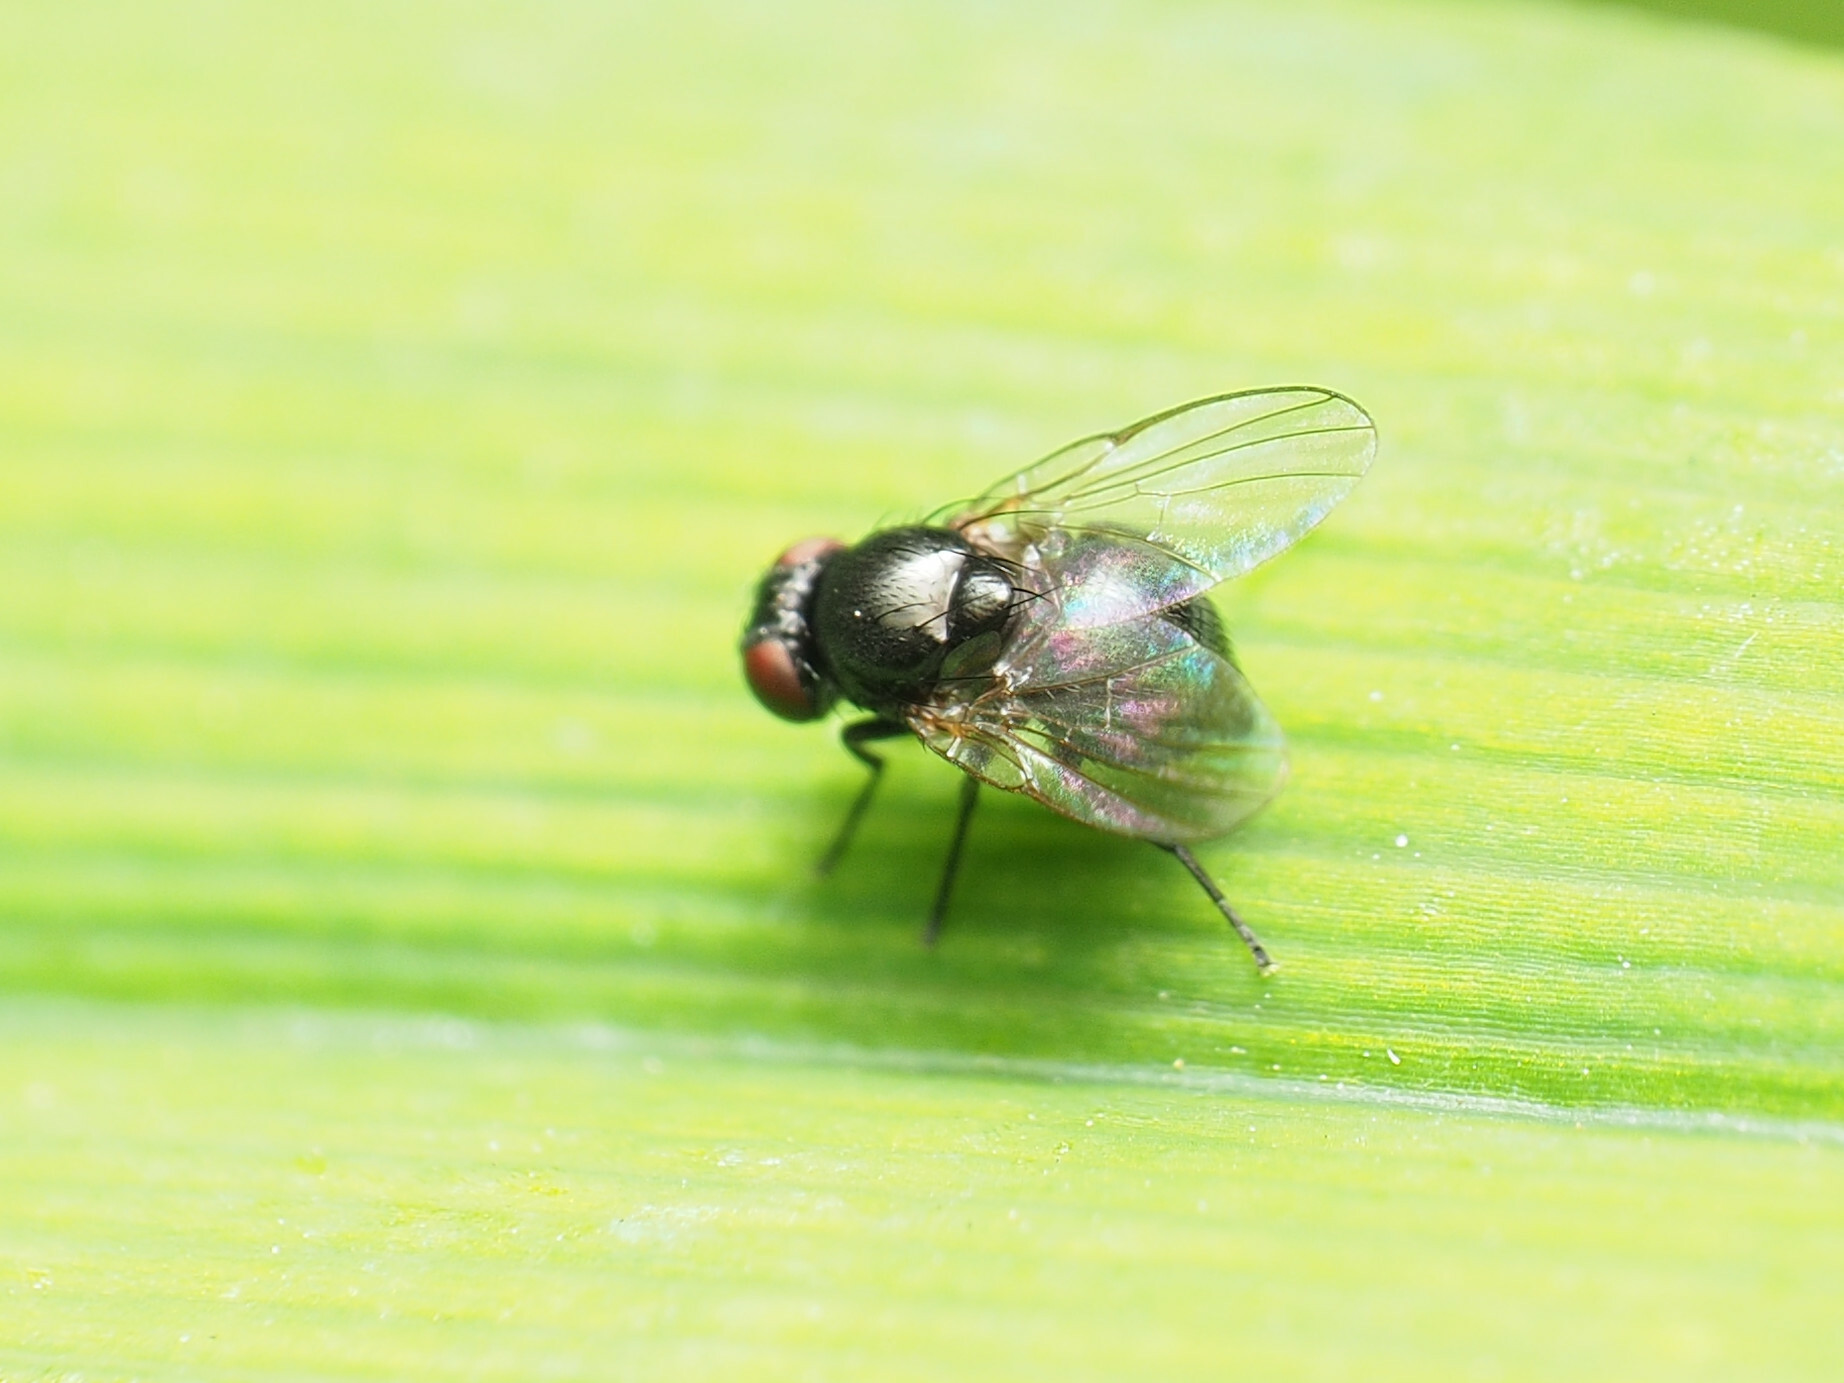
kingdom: Animalia
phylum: Arthropoda
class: Insecta
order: Diptera
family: Agromyzidae
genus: Ophiomyia
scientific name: Ophiomyia kwansonis
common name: Daylily leafminer
